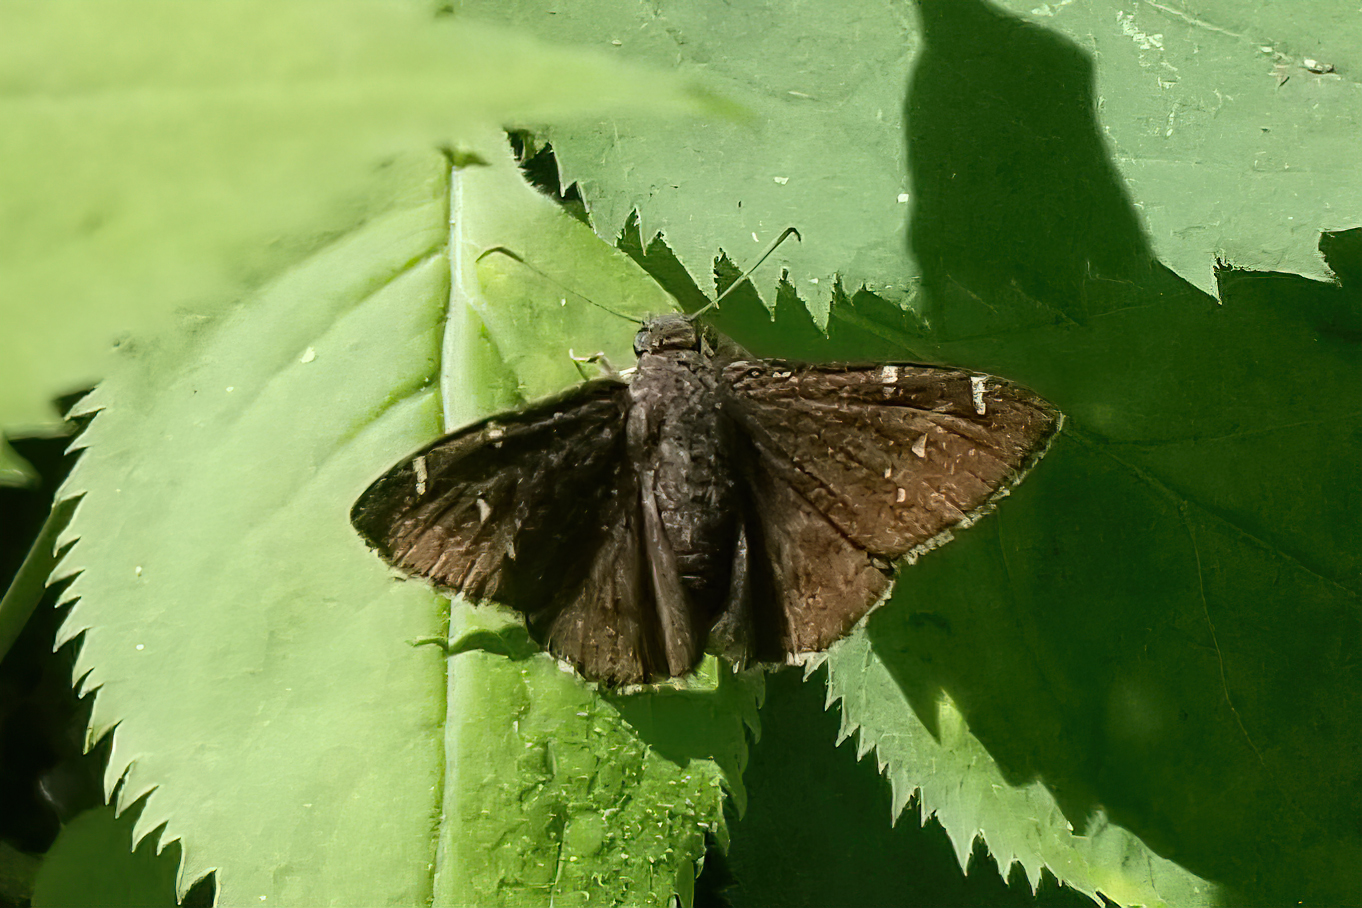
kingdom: Animalia
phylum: Arthropoda
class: Insecta
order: Lepidoptera
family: Hesperiidae
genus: Thorybes
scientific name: Thorybes pylades
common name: Northern cloudywing
